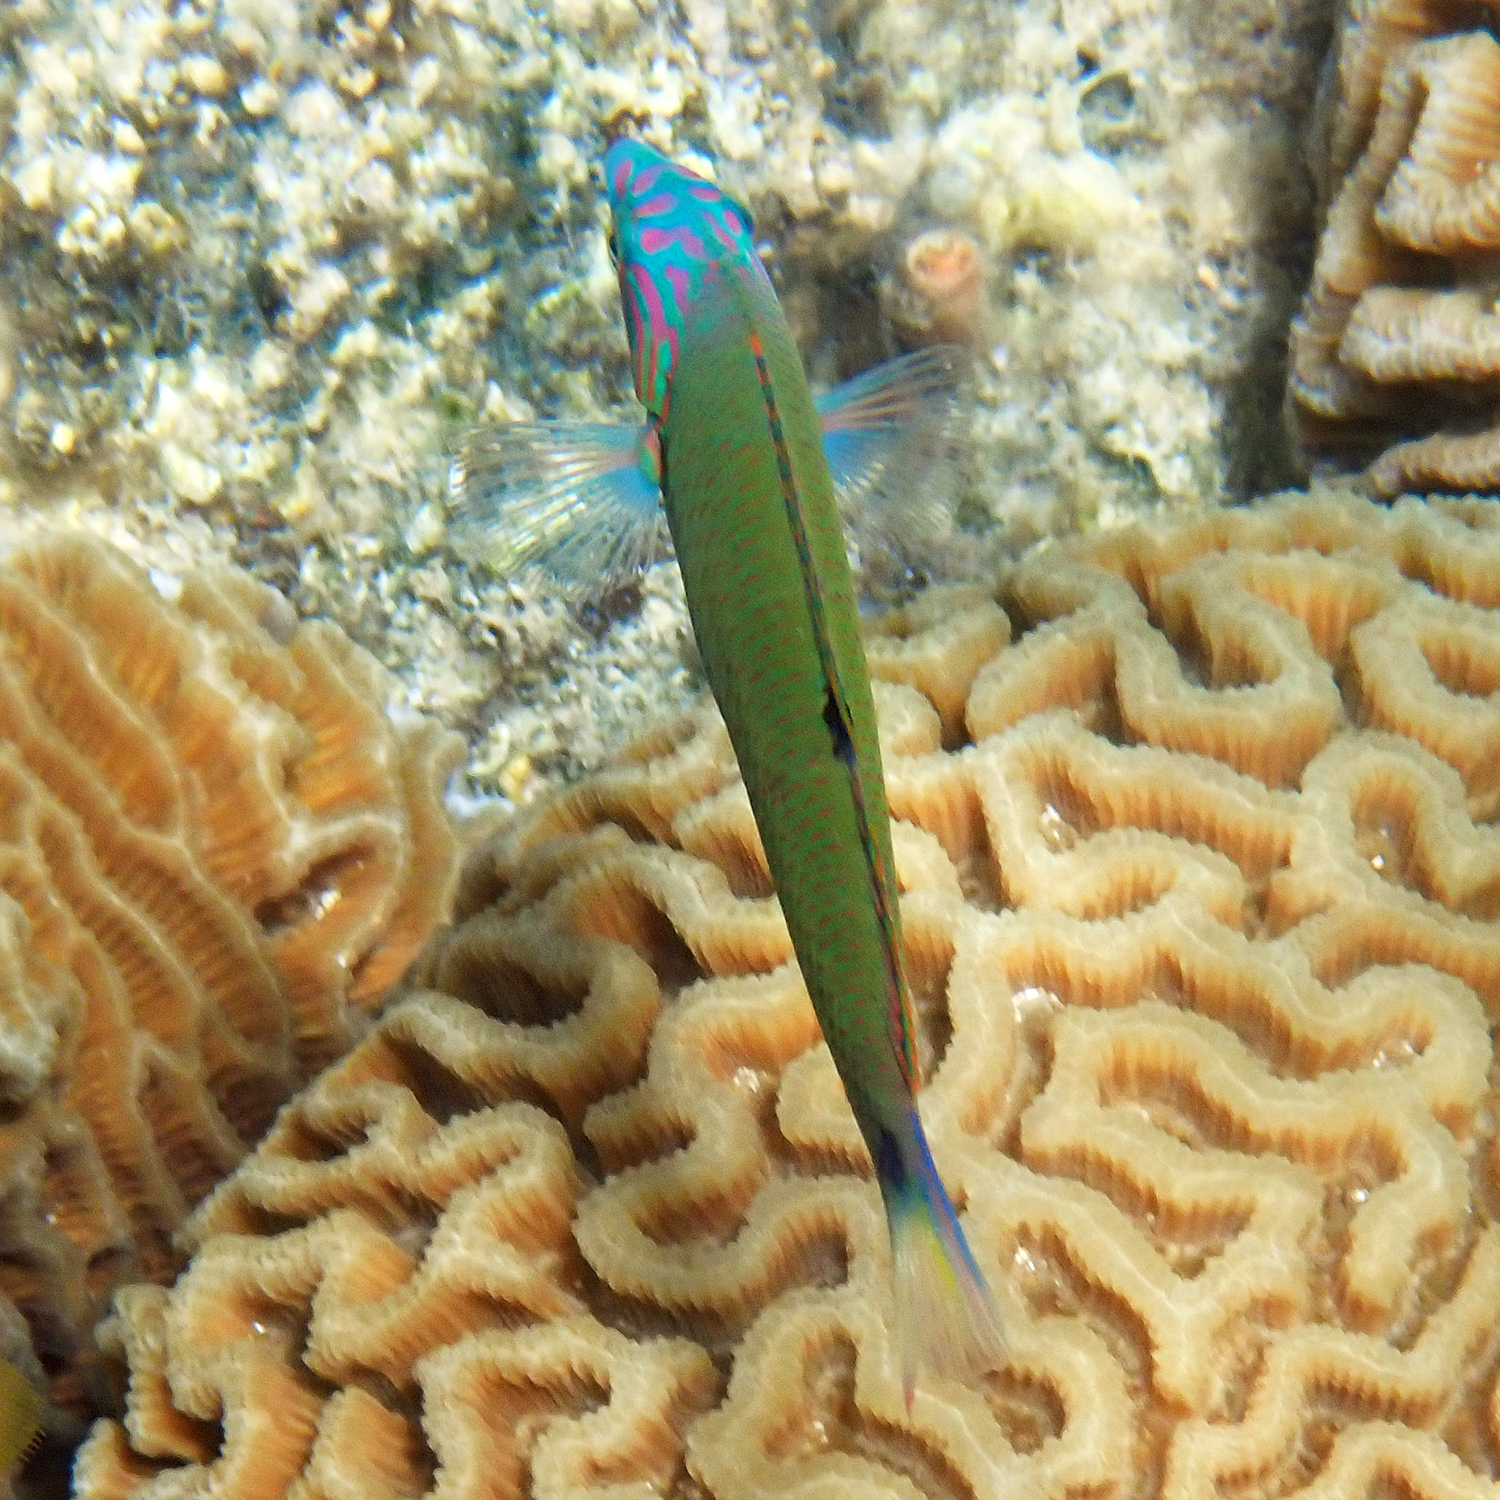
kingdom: Animalia
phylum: Chordata
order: Perciformes
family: Labridae
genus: Thalassoma
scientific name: Thalassoma lunare
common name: Blue wrasse
